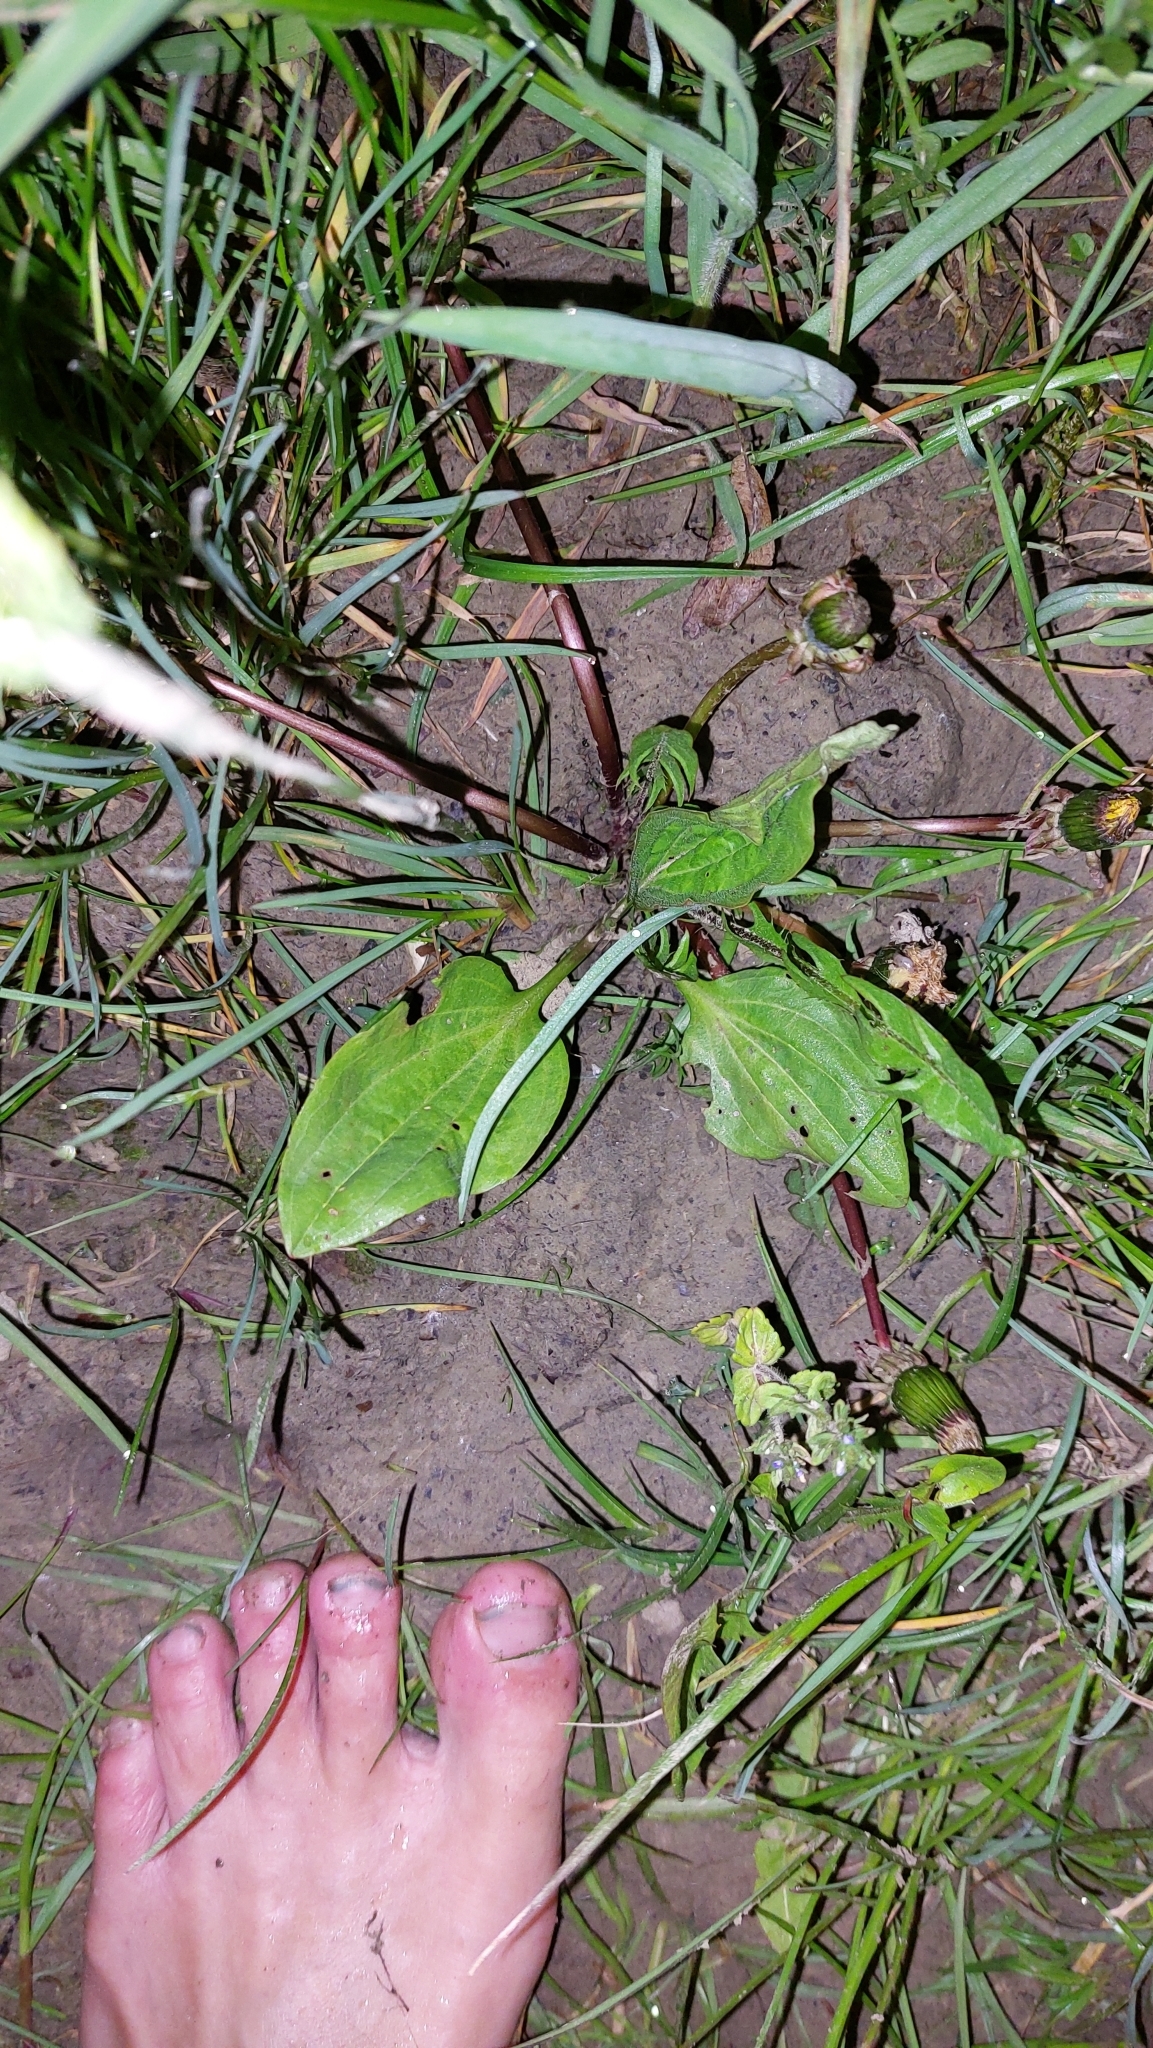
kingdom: Plantae
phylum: Tracheophyta
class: Magnoliopsida
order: Lamiales
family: Plantaginaceae
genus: Plantago
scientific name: Plantago major
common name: Common plantain
